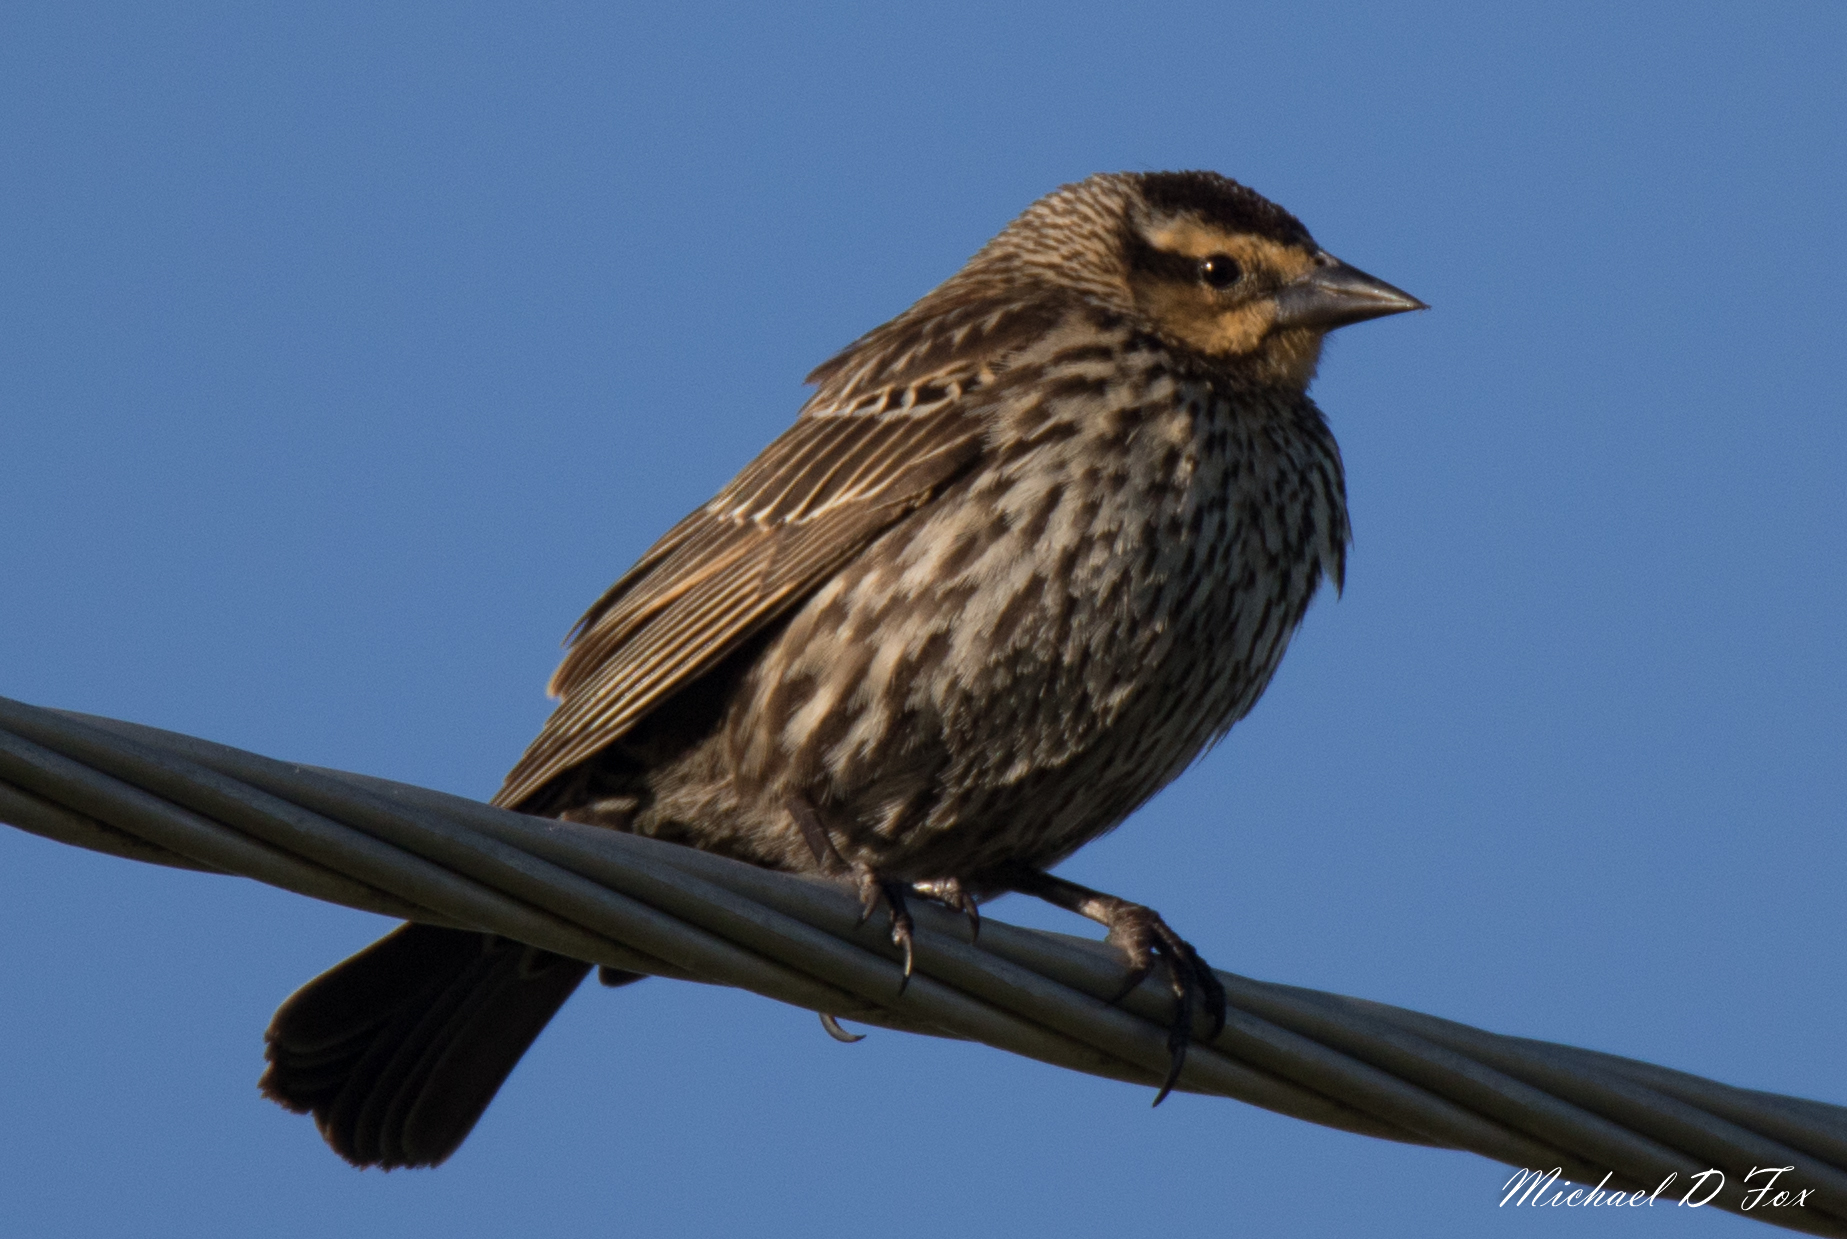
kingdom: Animalia
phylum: Chordata
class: Aves
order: Passeriformes
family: Icteridae
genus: Agelaius
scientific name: Agelaius phoeniceus
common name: Red-winged blackbird
